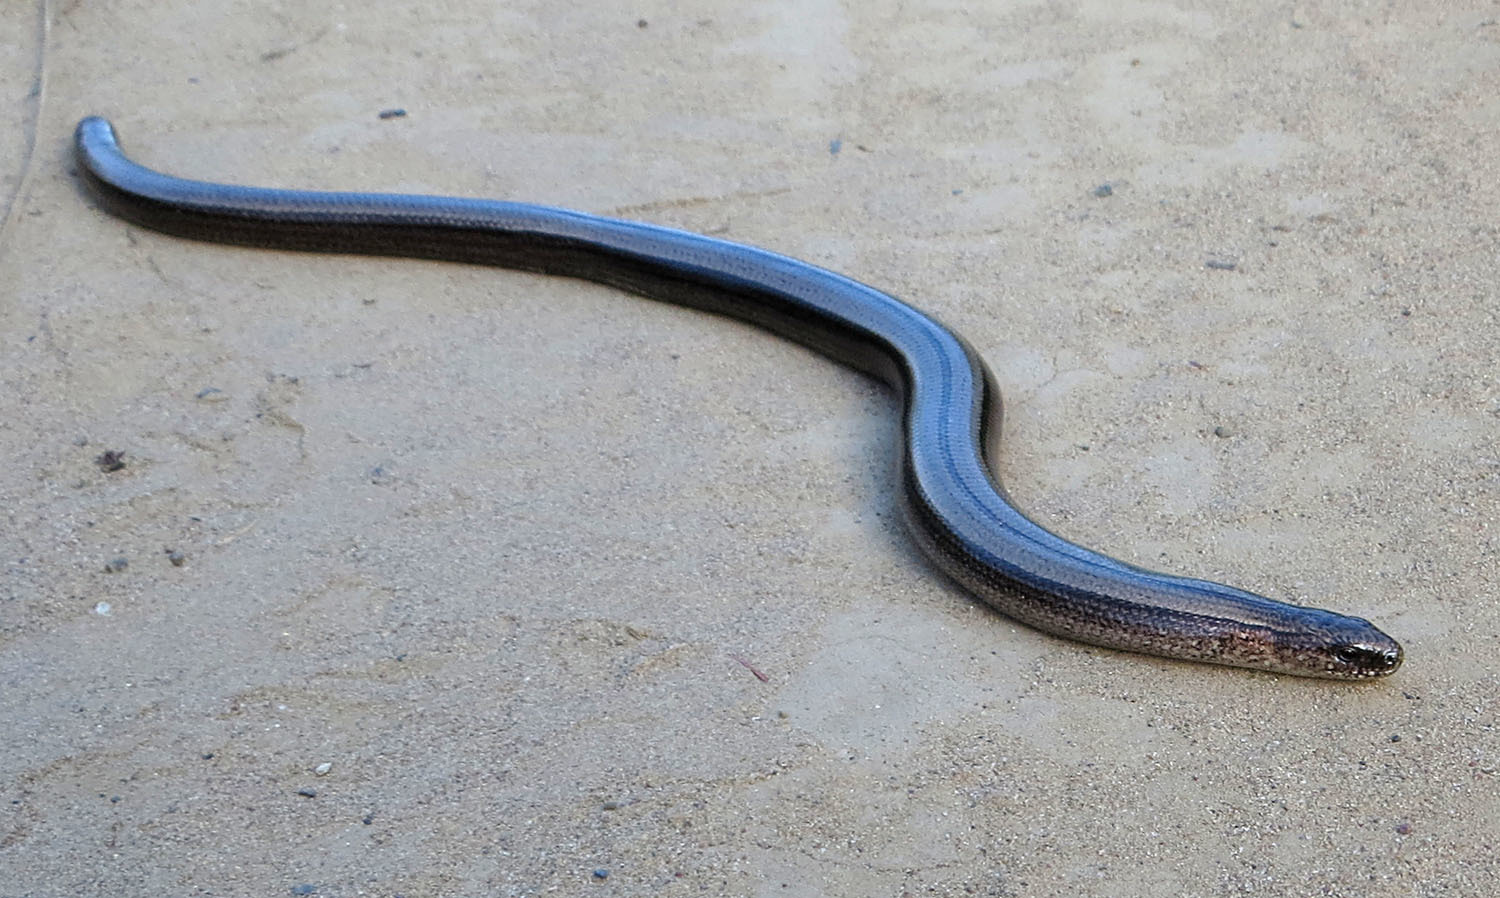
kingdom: Animalia
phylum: Chordata
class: Squamata
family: Anguidae
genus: Anguis
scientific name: Anguis colchica
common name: Slow worm
